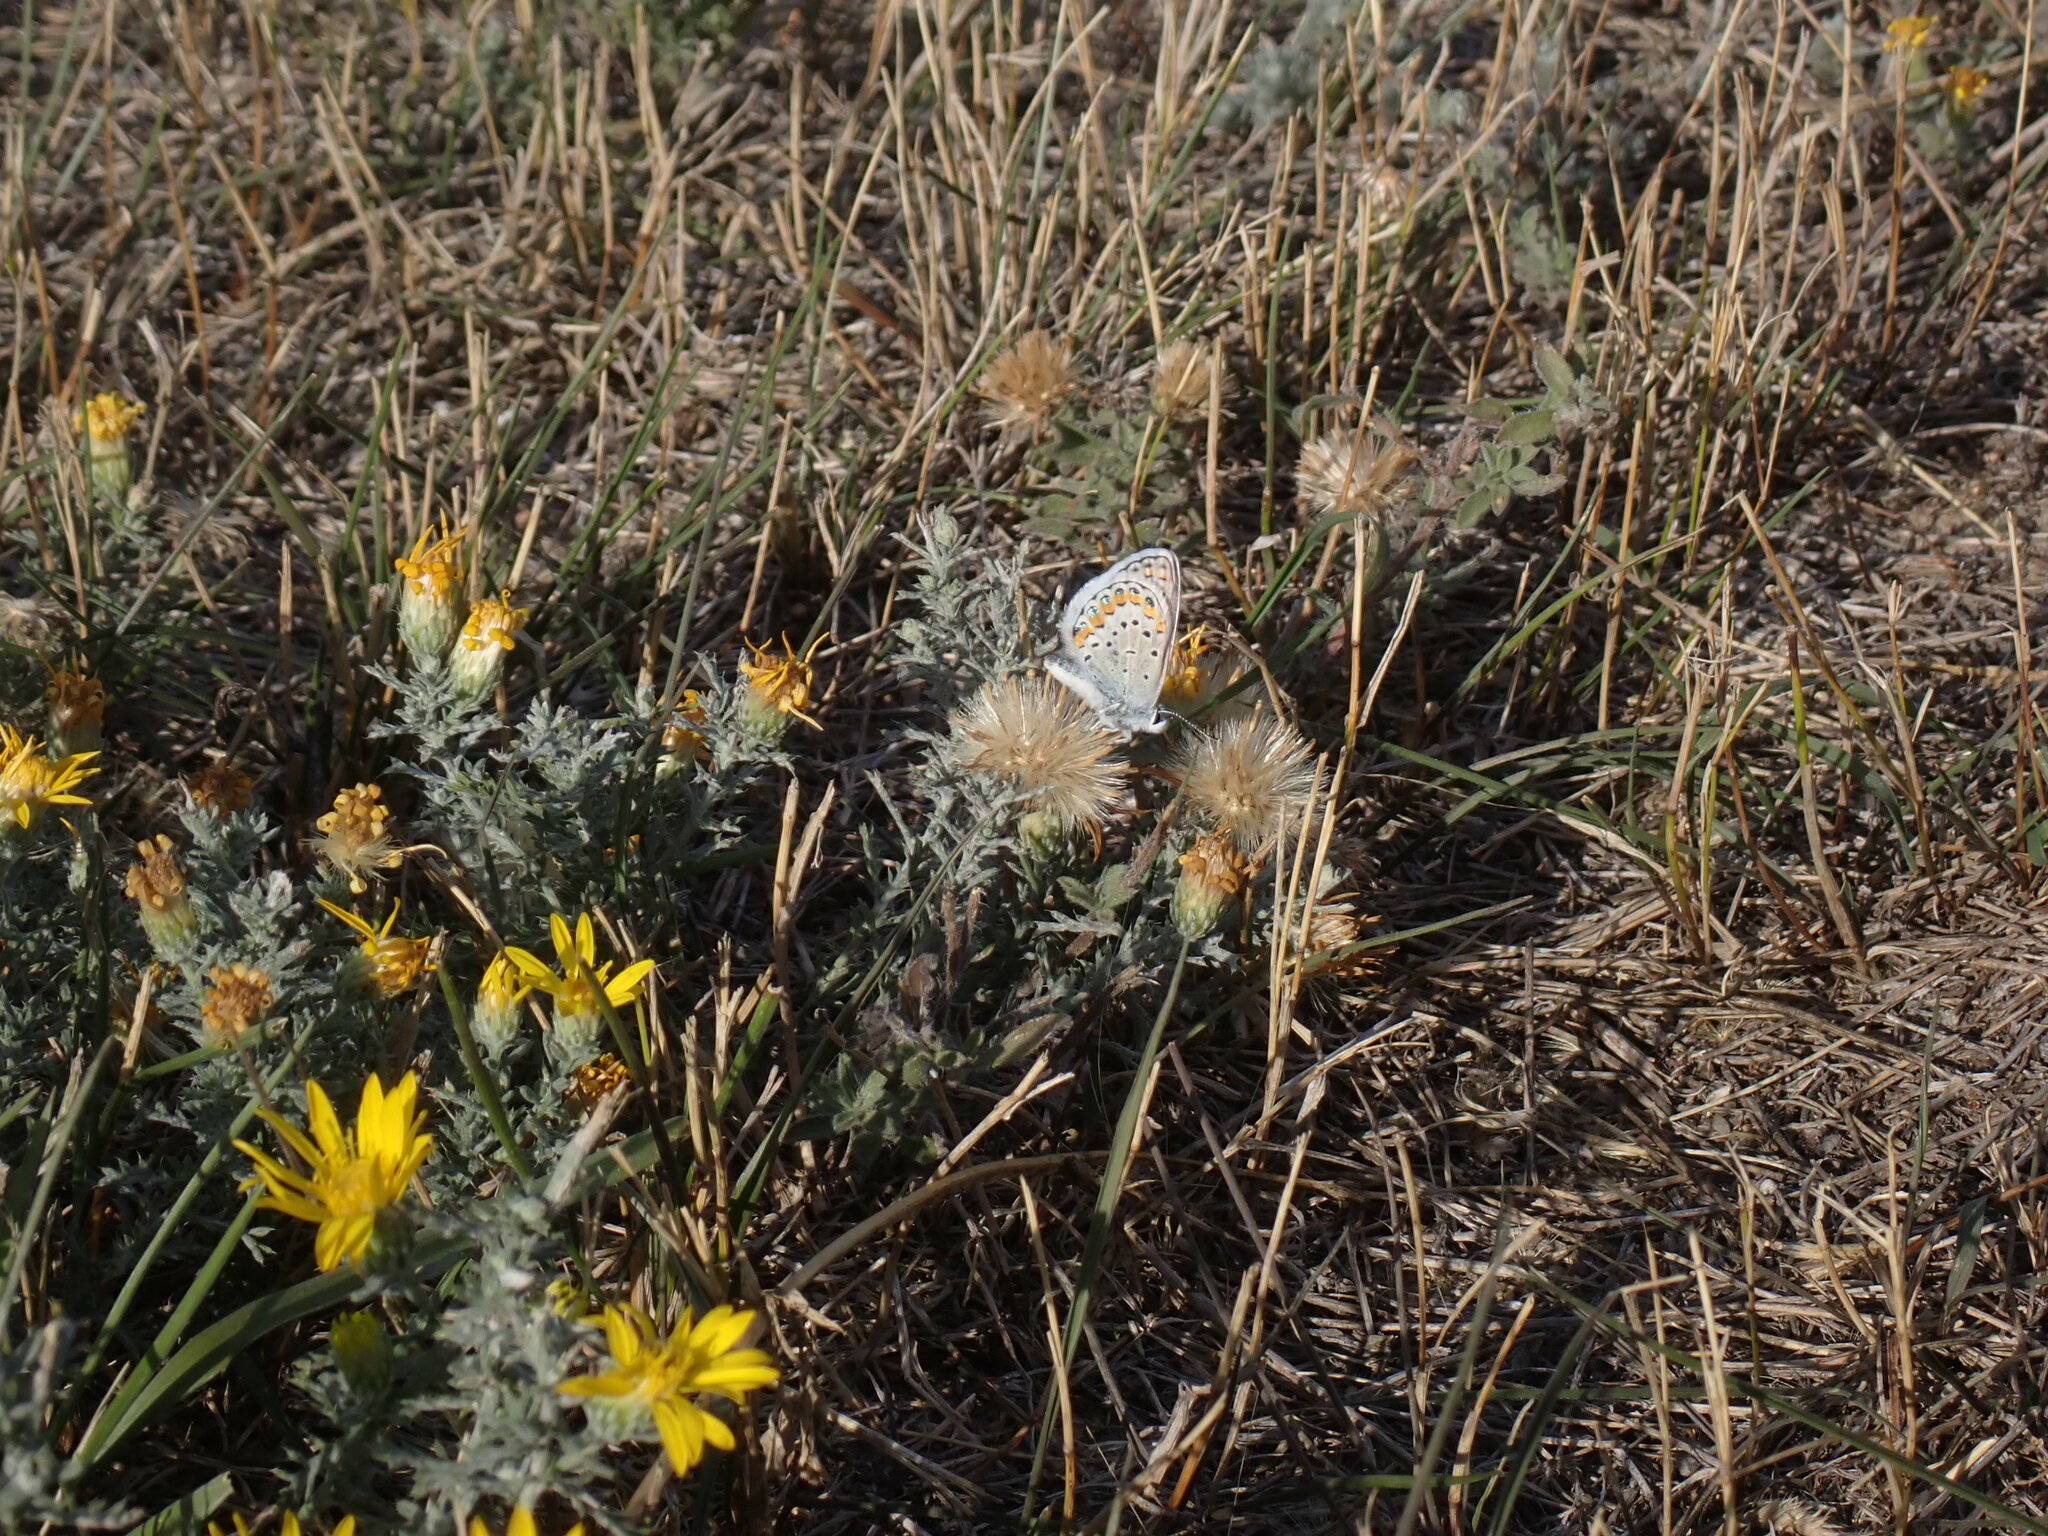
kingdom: Animalia
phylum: Arthropoda
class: Insecta
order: Lepidoptera
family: Lycaenidae
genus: Lycaeides
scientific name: Lycaeides melissa
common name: Melissa blue
